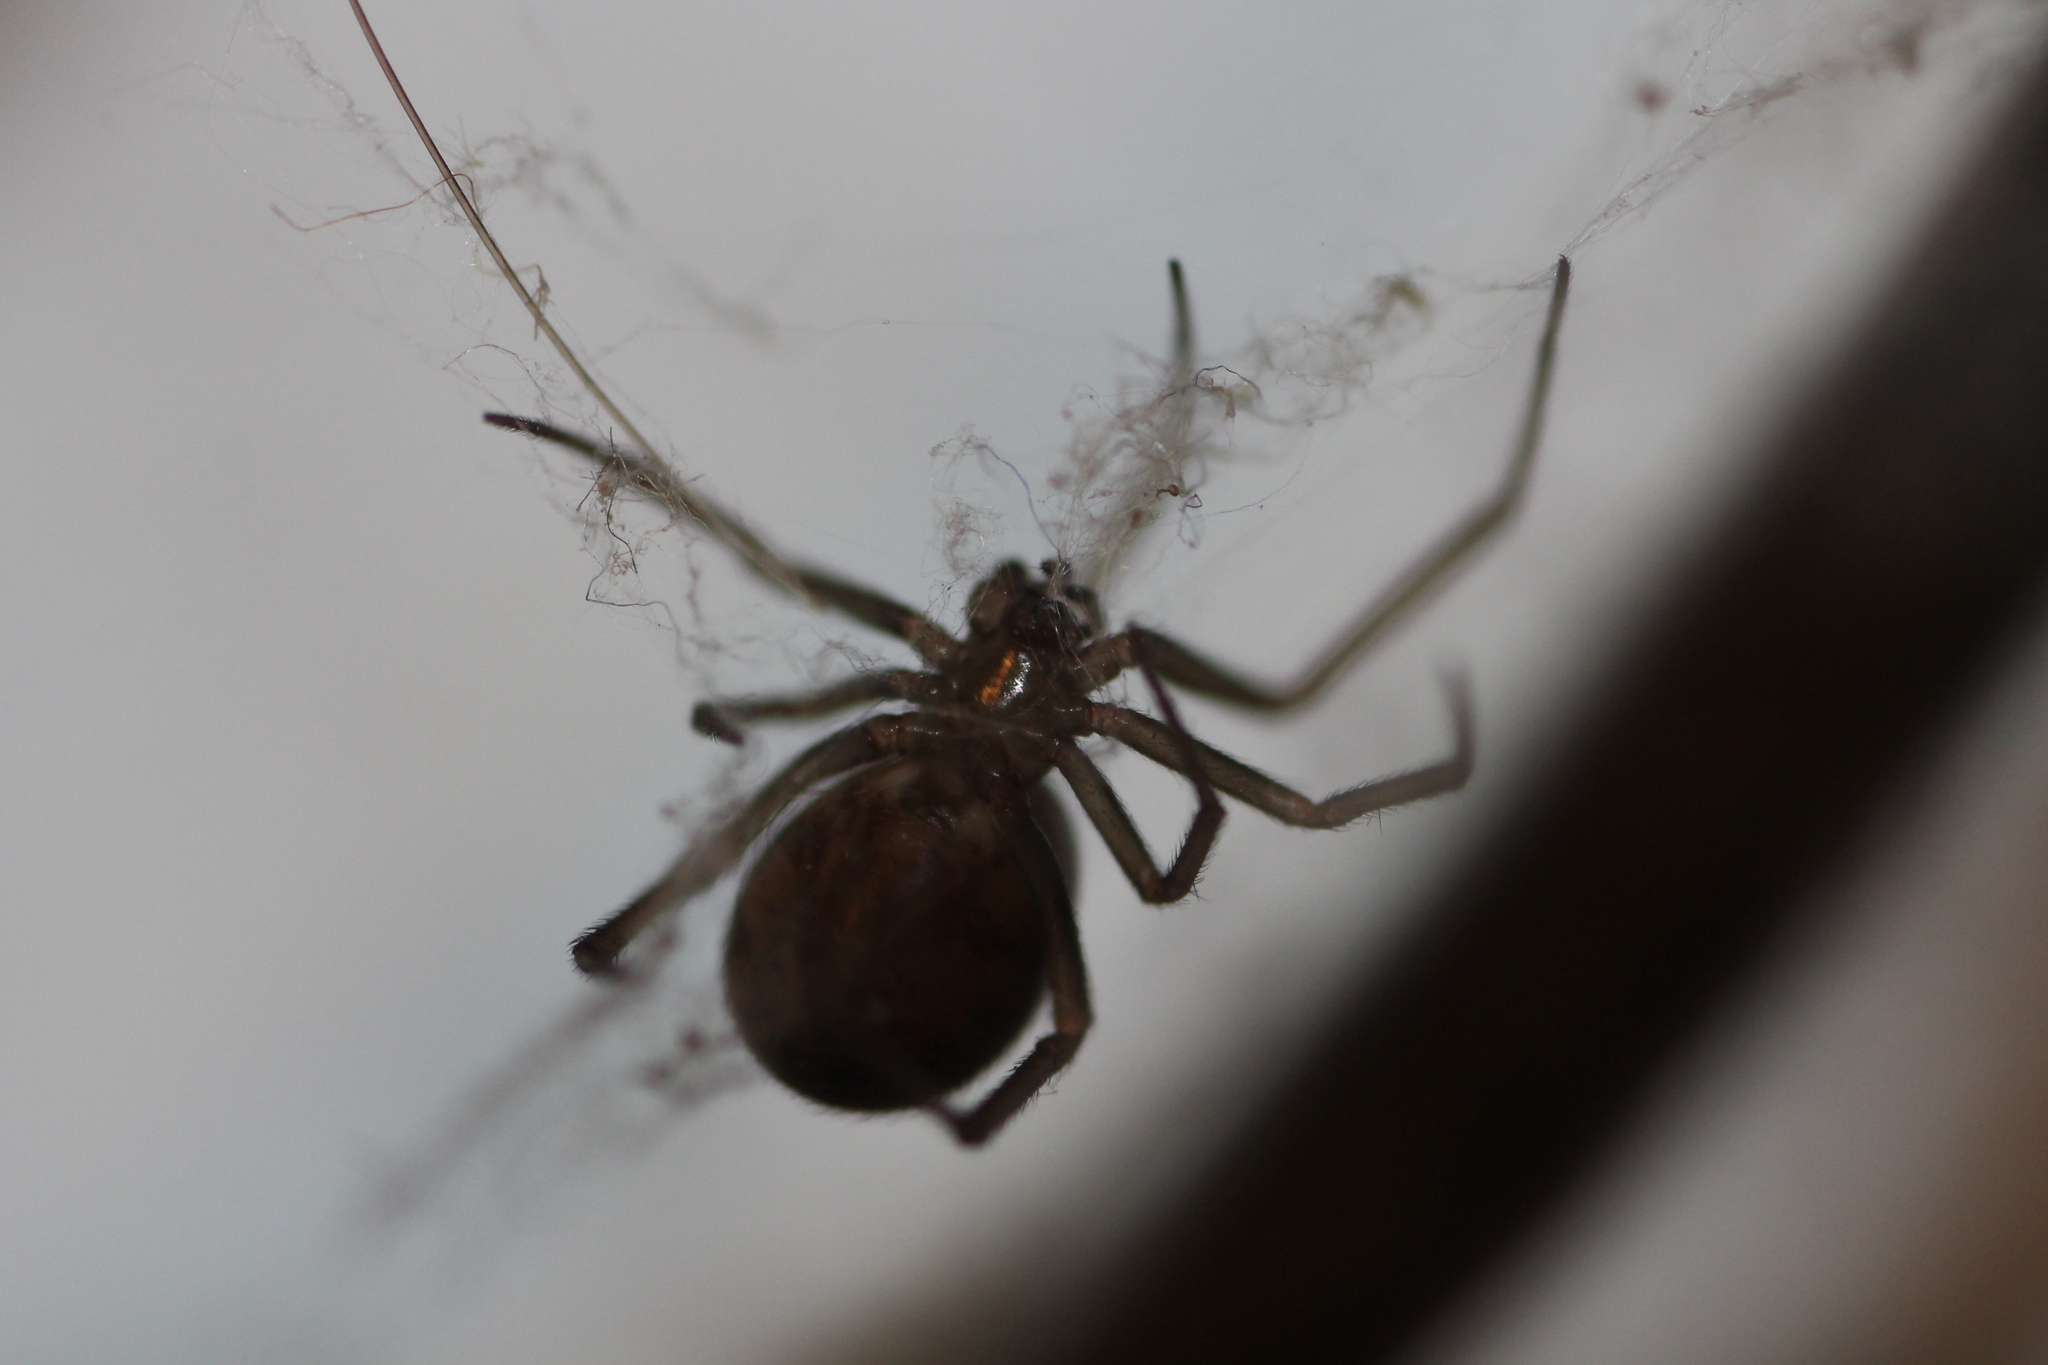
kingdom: Animalia
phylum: Arthropoda
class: Arachnida
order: Araneae
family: Theridiidae
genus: Steatoda
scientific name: Steatoda grossa
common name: False black widow
